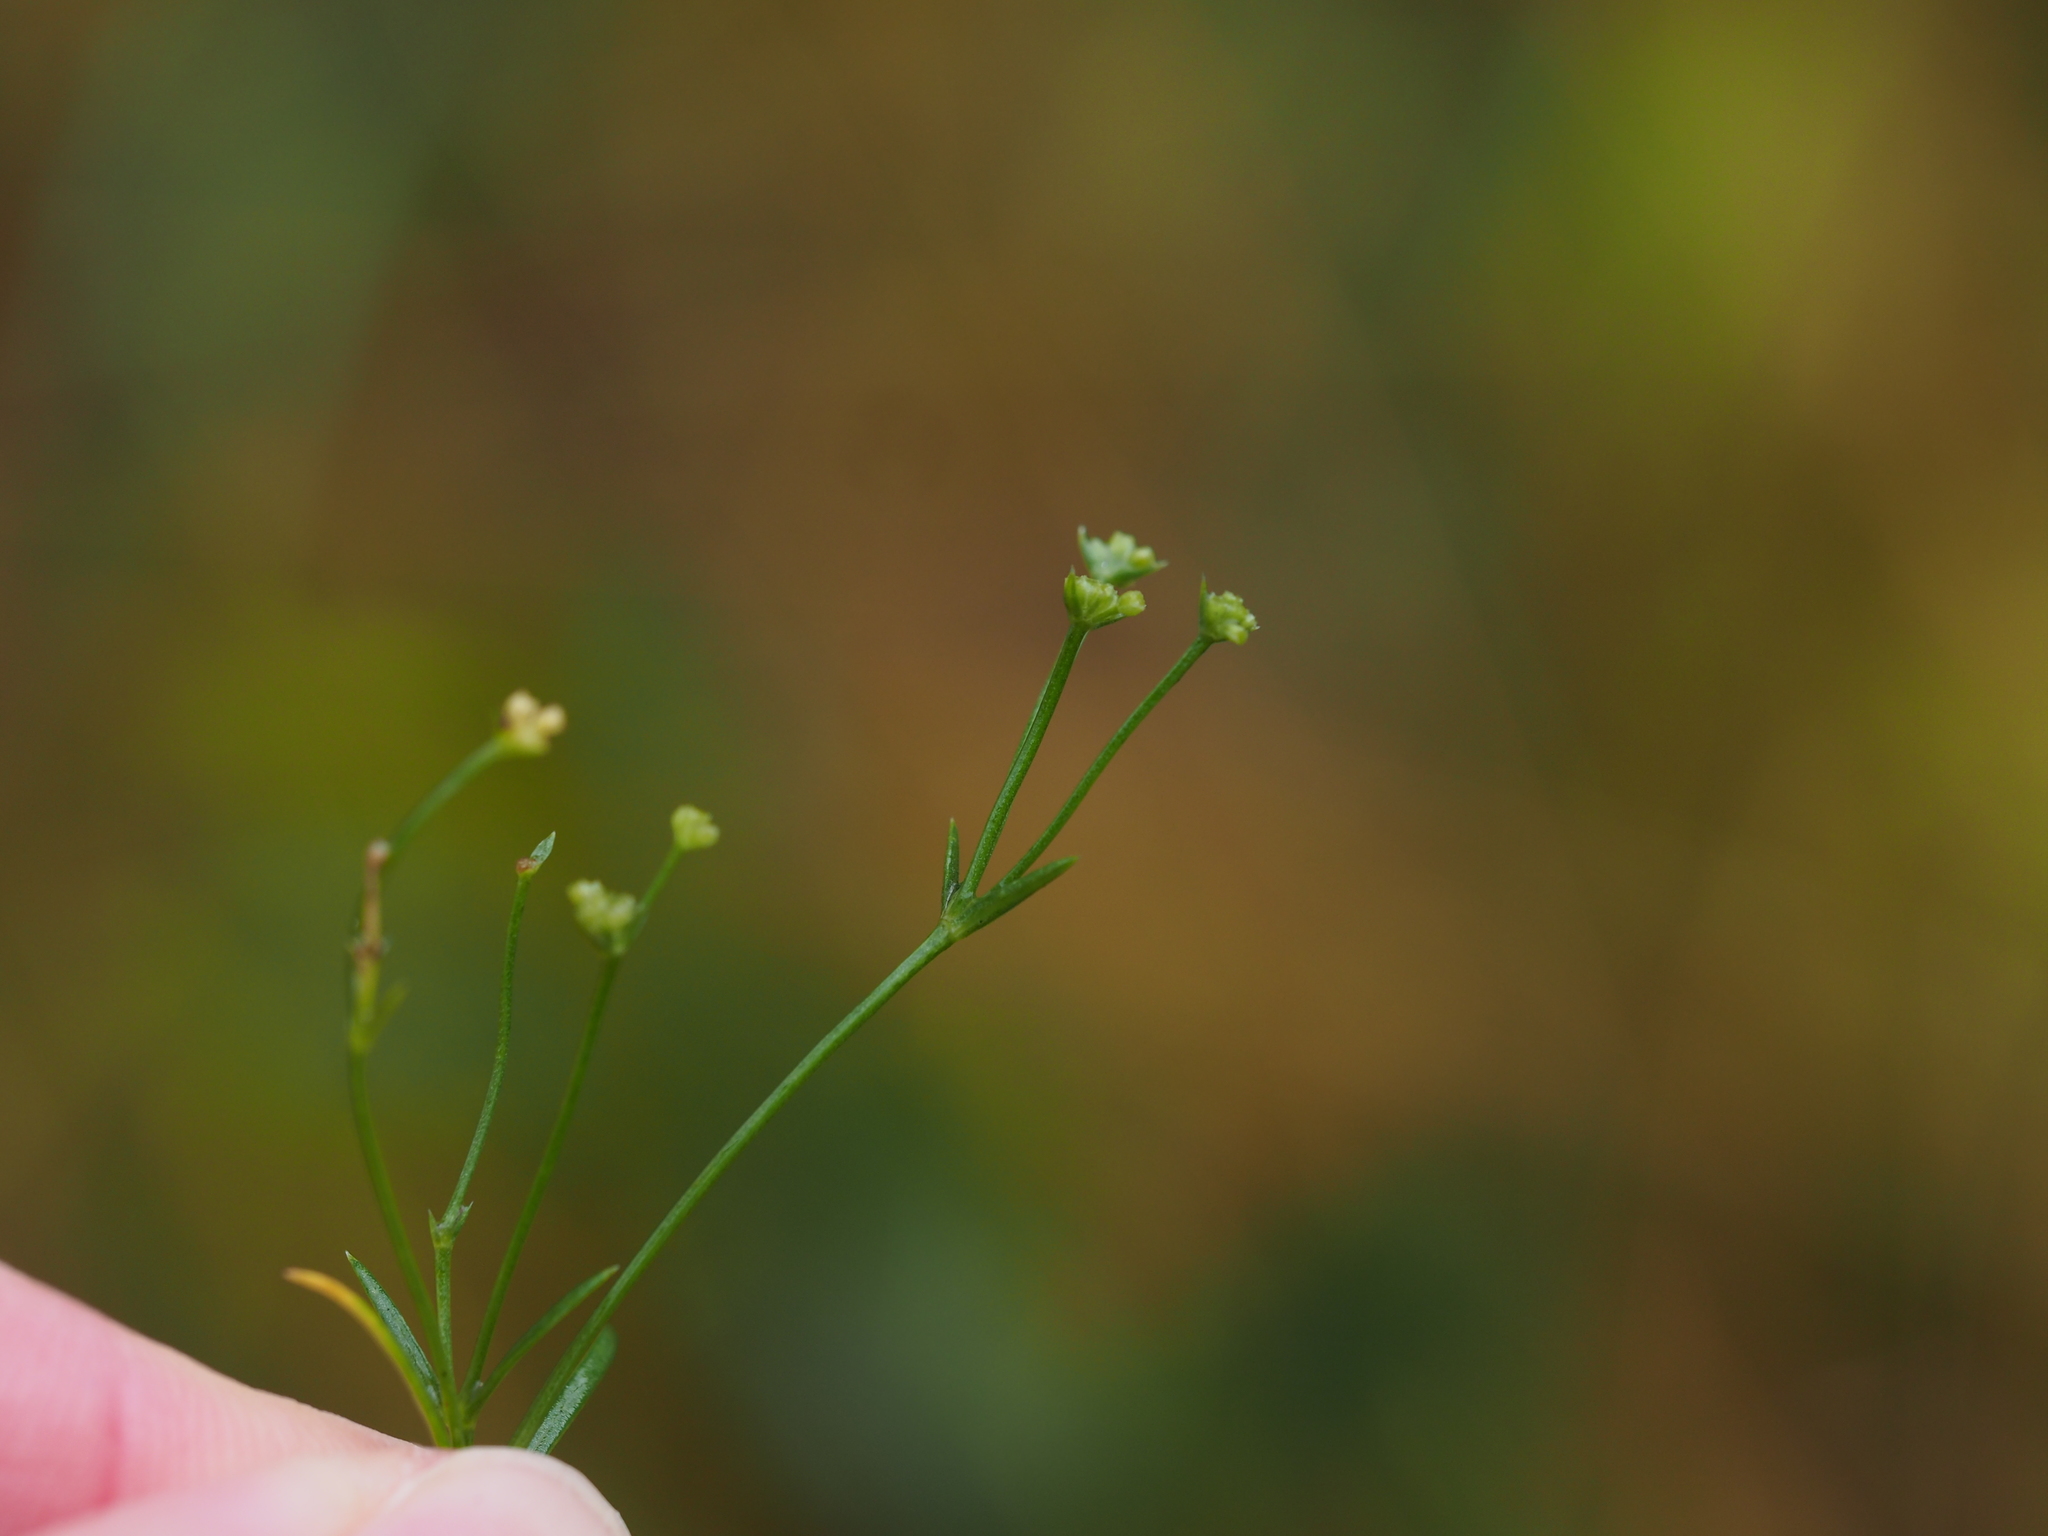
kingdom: Plantae
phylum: Tracheophyta
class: Magnoliopsida
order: Gentianales
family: Rubiaceae
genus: Cynanchica
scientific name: Cynanchica neilreichii
